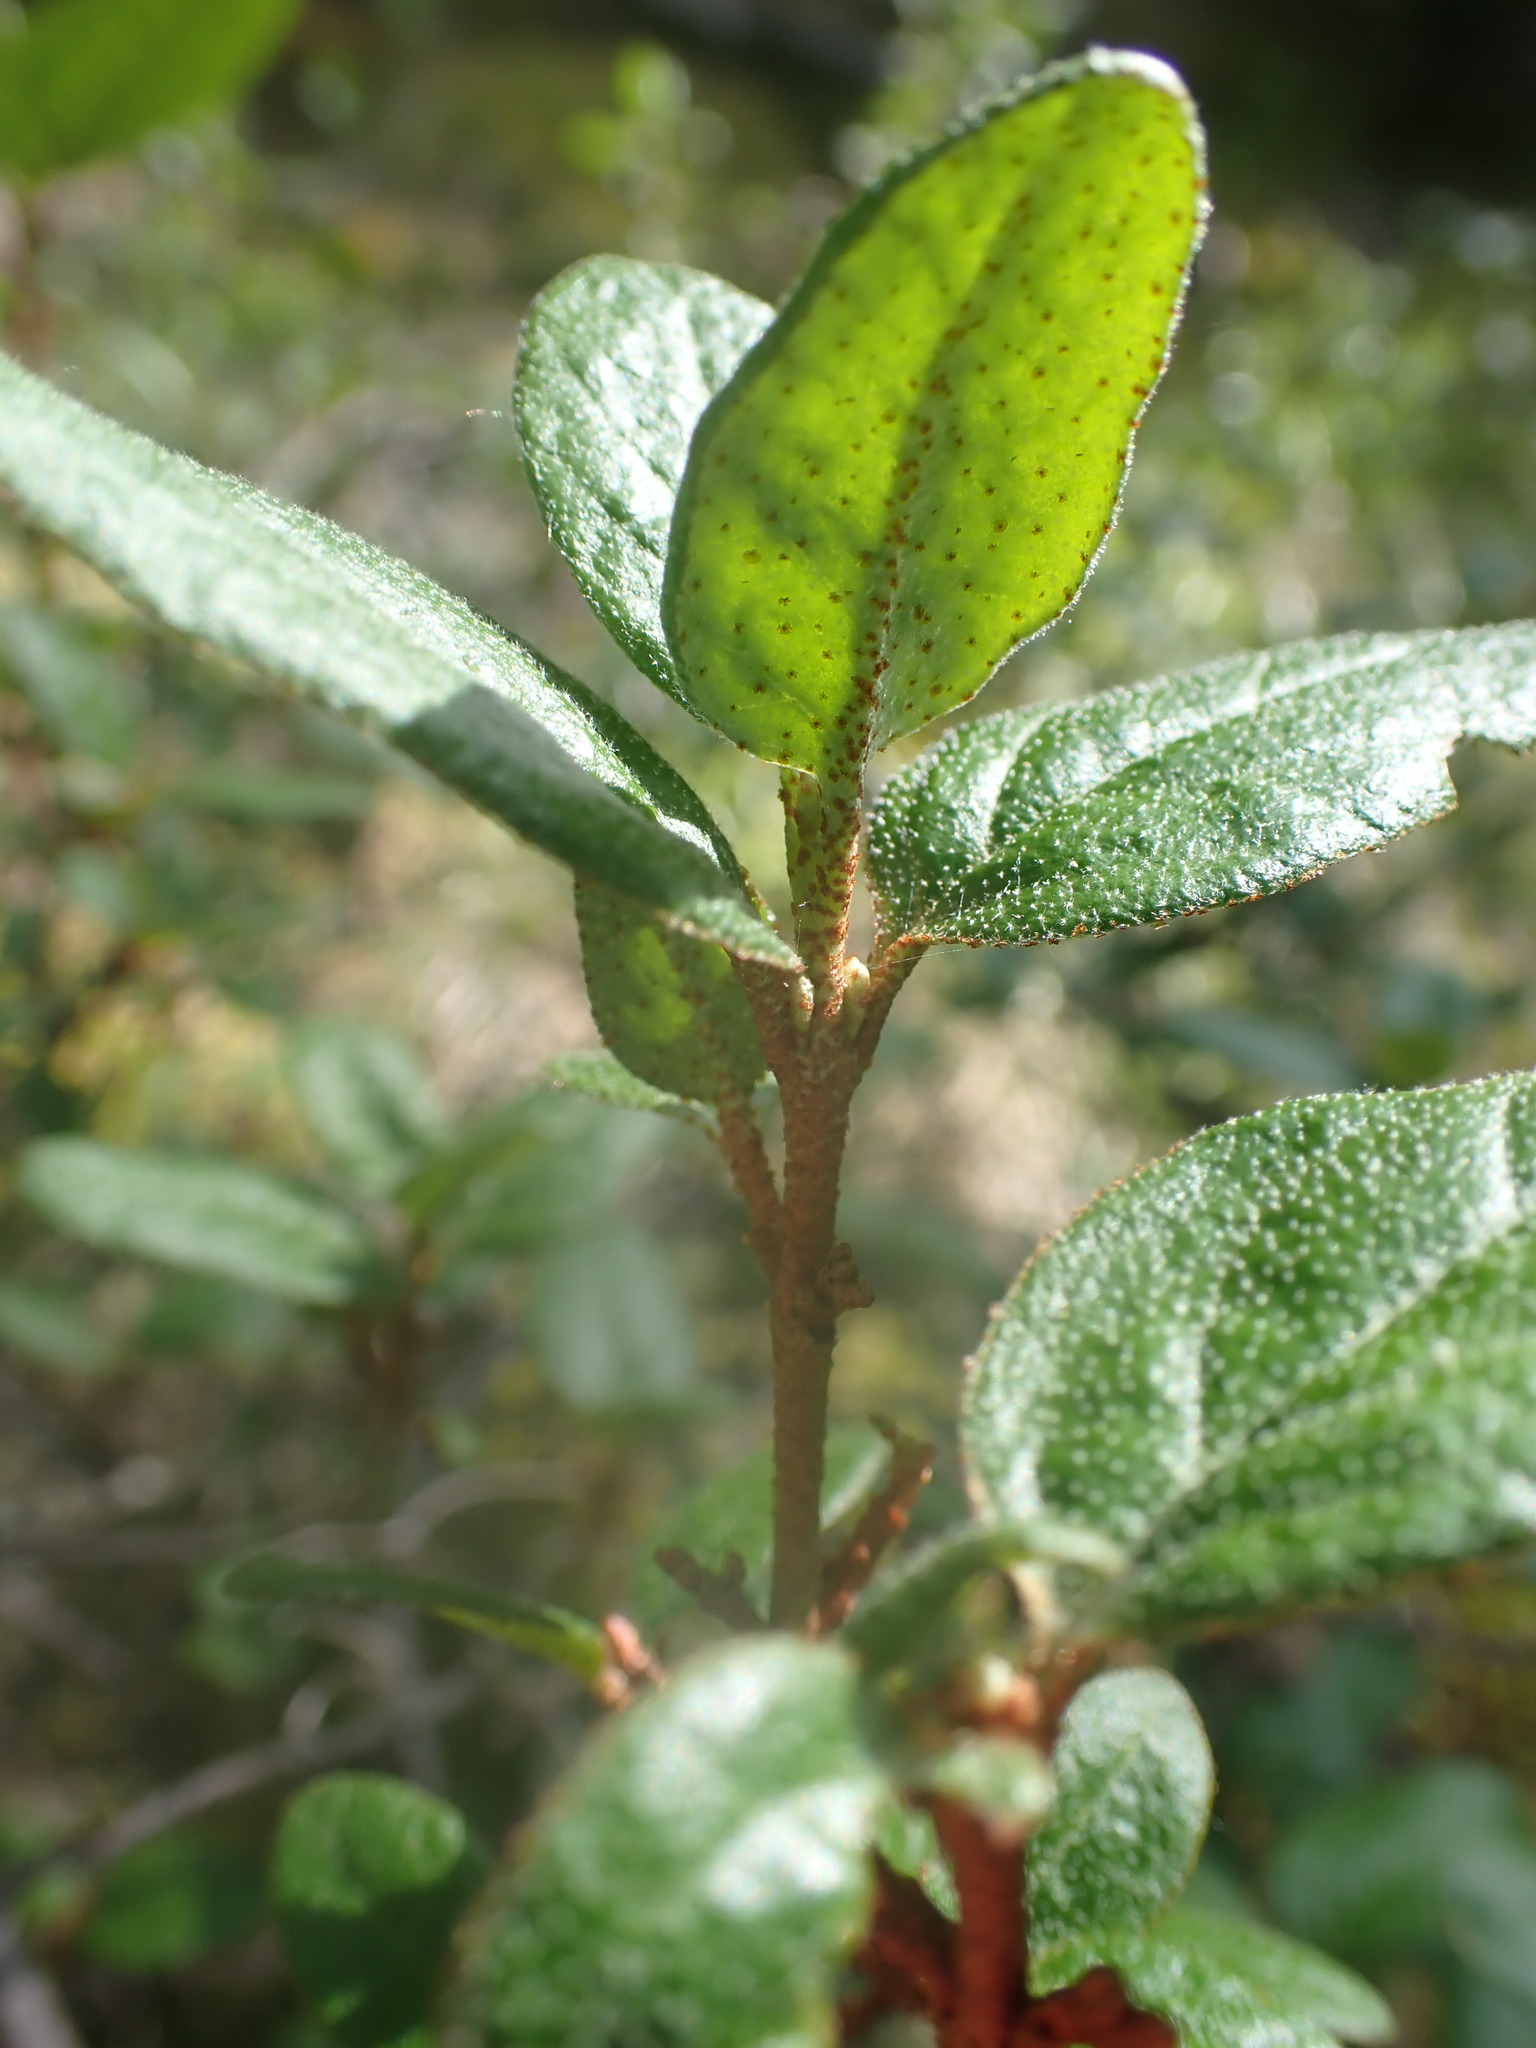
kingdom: Plantae
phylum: Tracheophyta
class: Magnoliopsida
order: Rosales
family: Elaeagnaceae
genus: Shepherdia
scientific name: Shepherdia canadensis
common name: Soapberry
